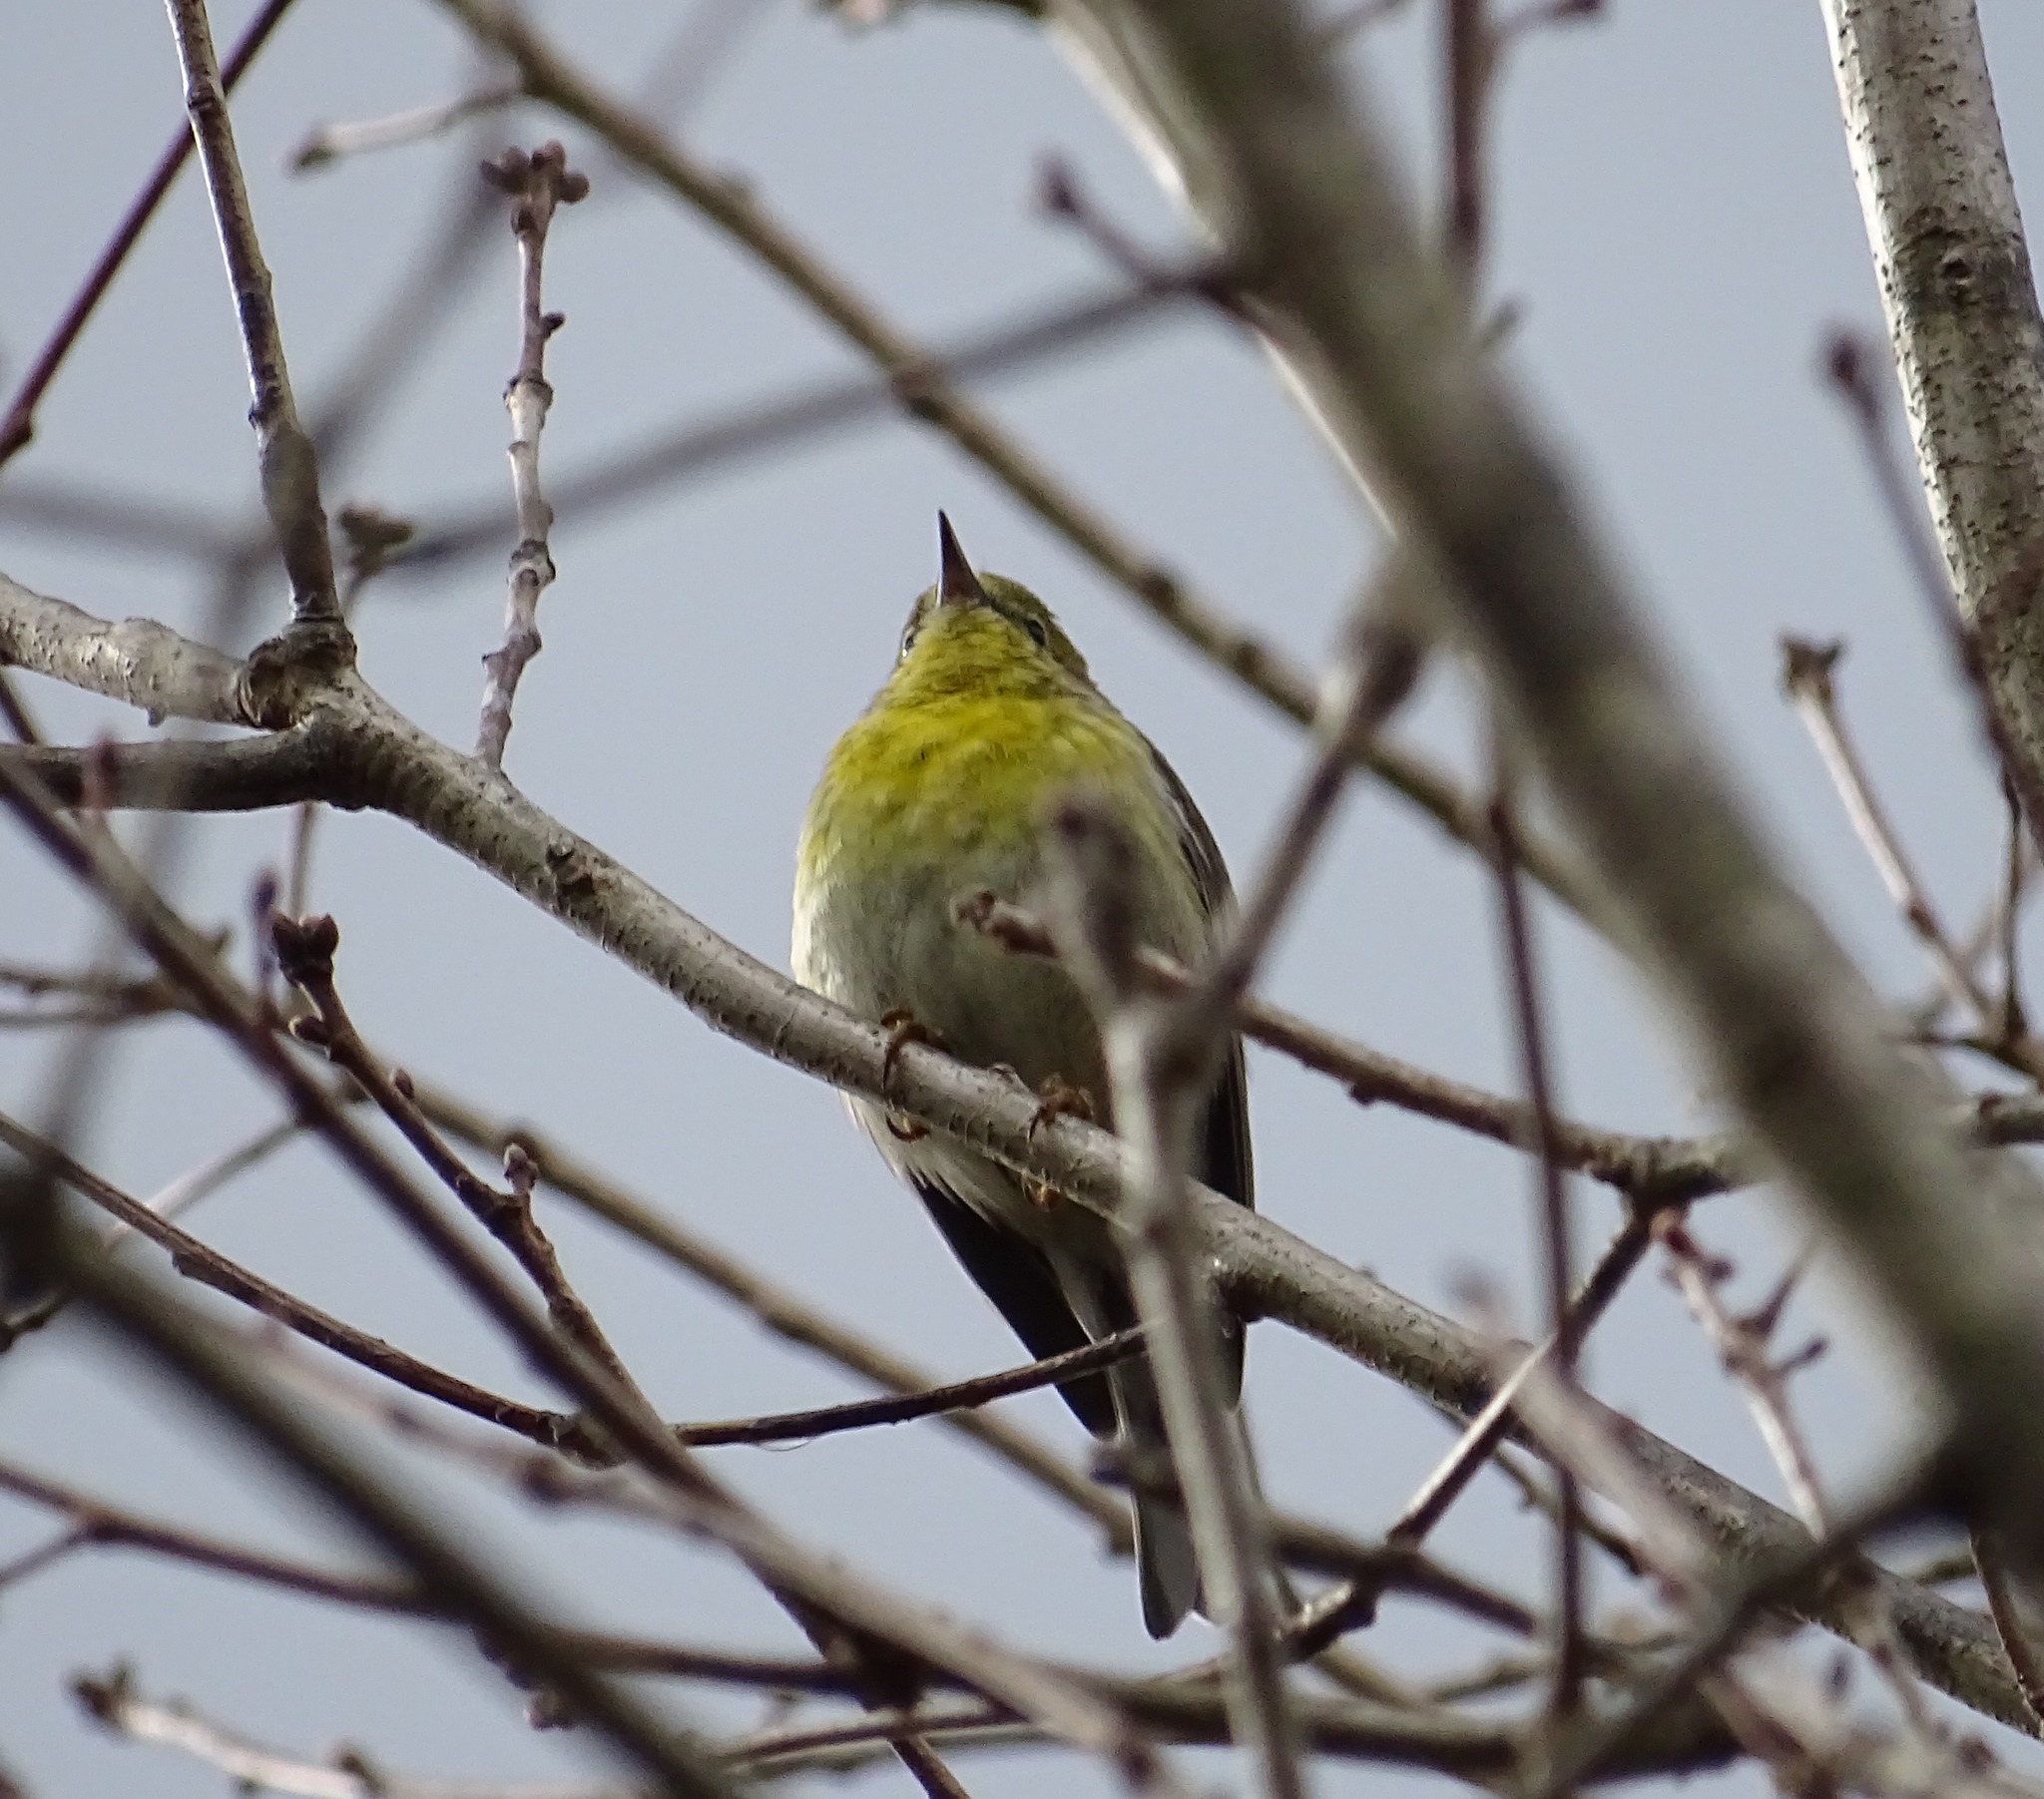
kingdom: Animalia
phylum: Chordata
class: Aves
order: Passeriformes
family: Parulidae
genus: Setophaga
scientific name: Setophaga pinus
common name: Pine warbler
